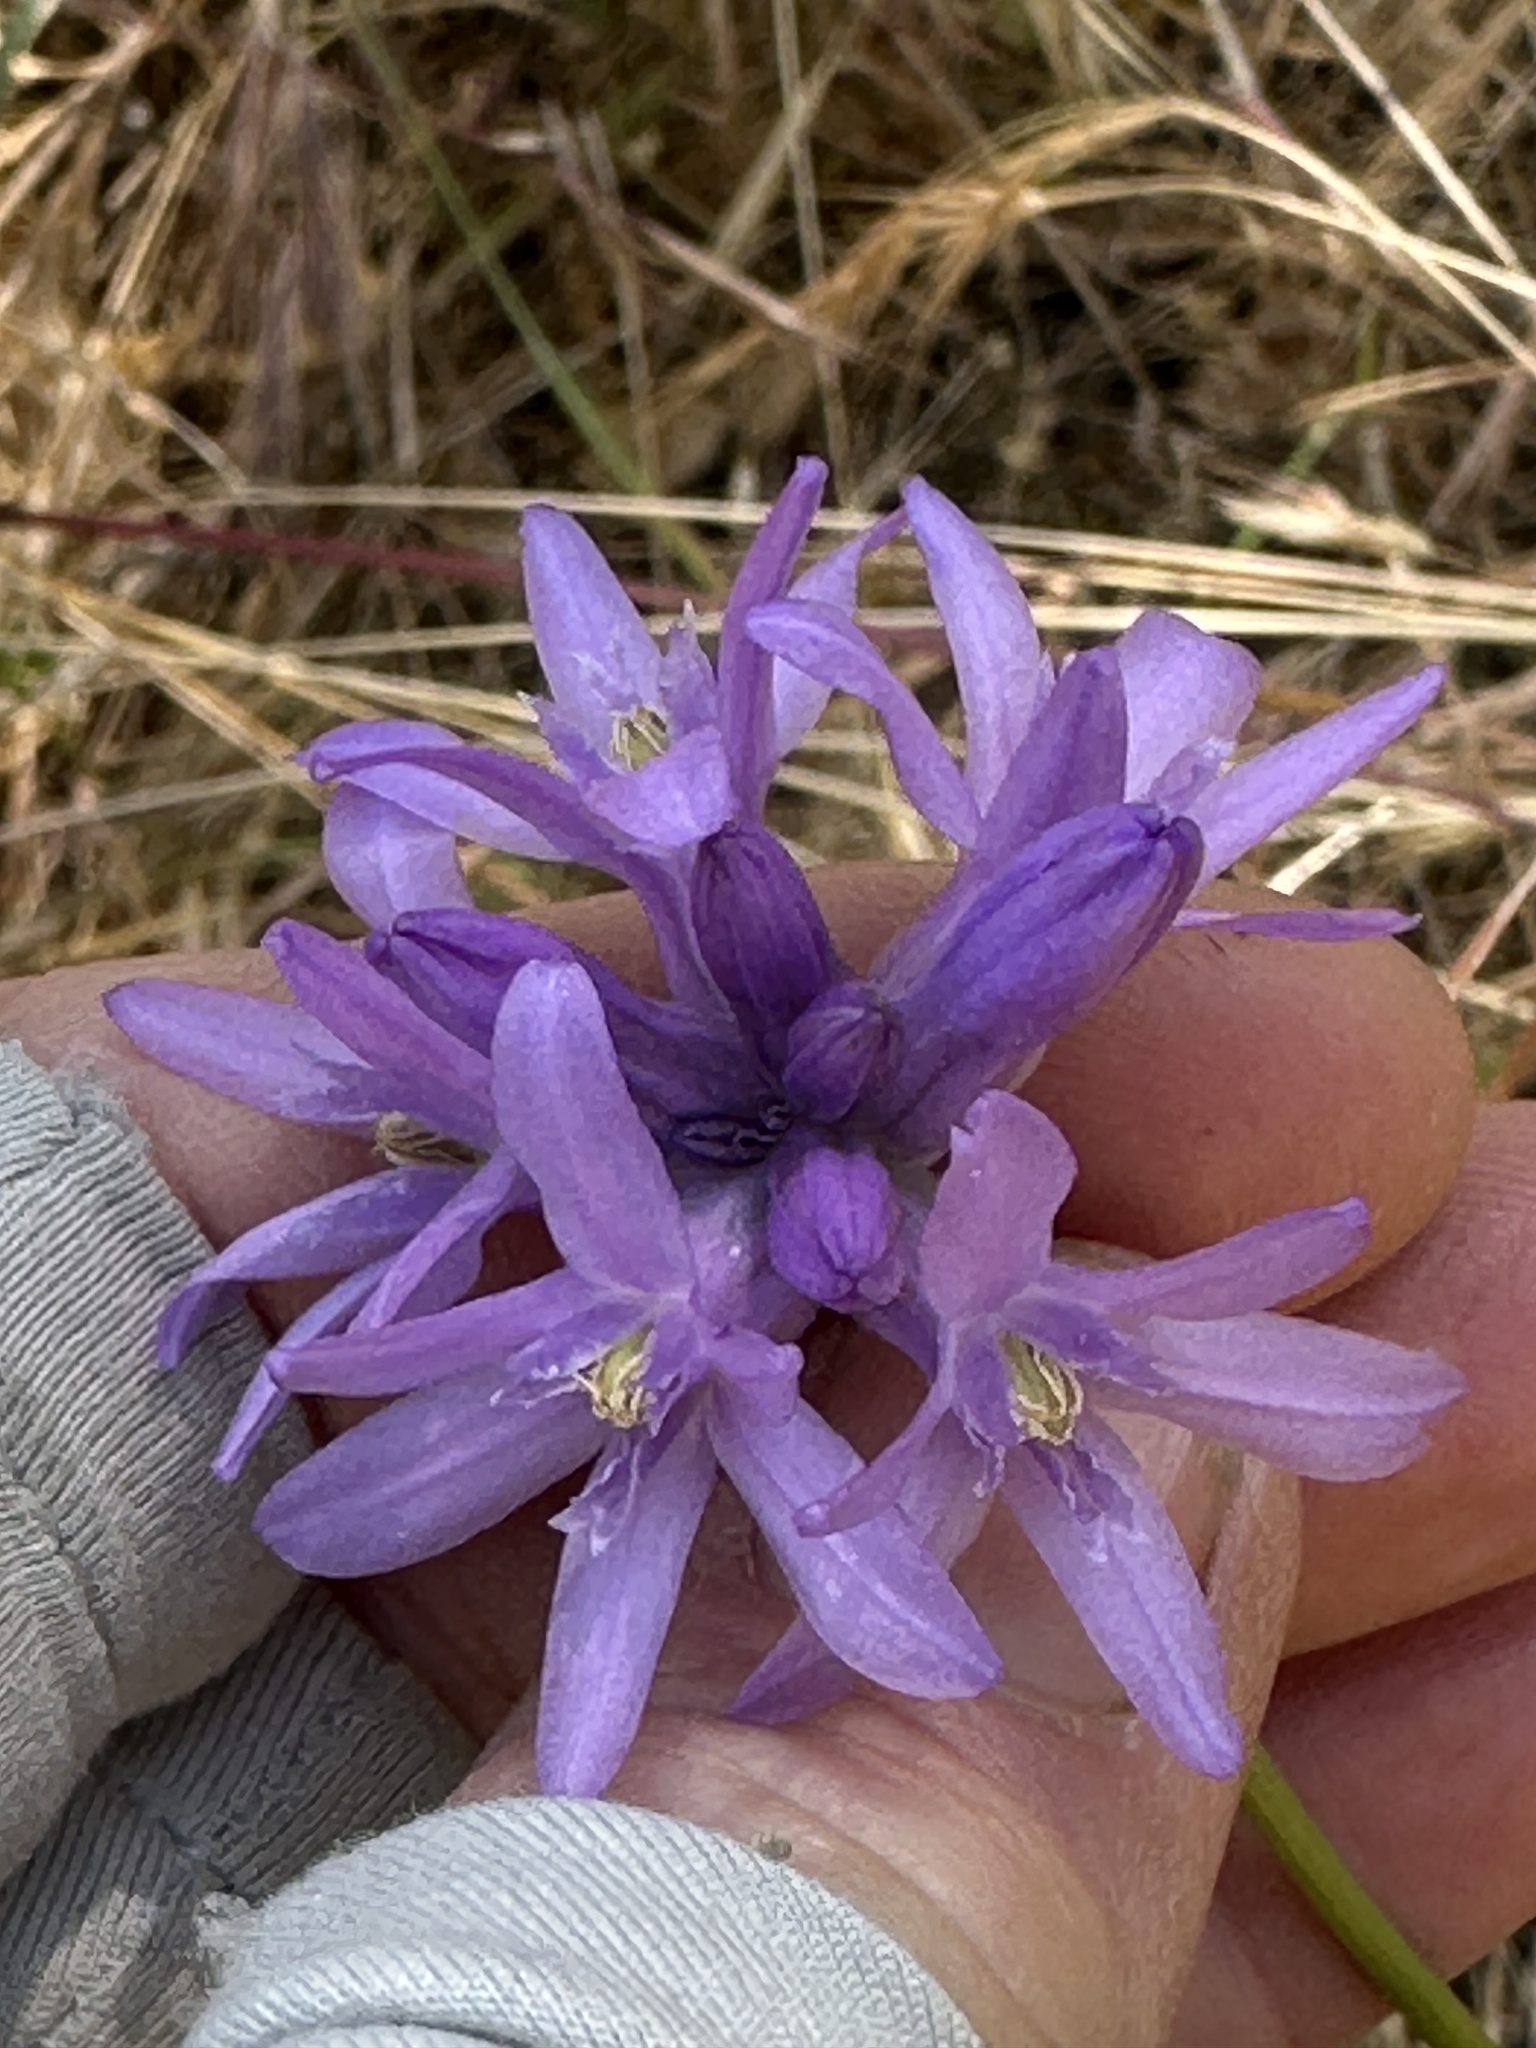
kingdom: Plantae
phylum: Tracheophyta
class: Liliopsida
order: Asparagales
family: Asparagaceae
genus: Dichelostemma
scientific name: Dichelostemma congestum
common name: Fork-tooth ookow
